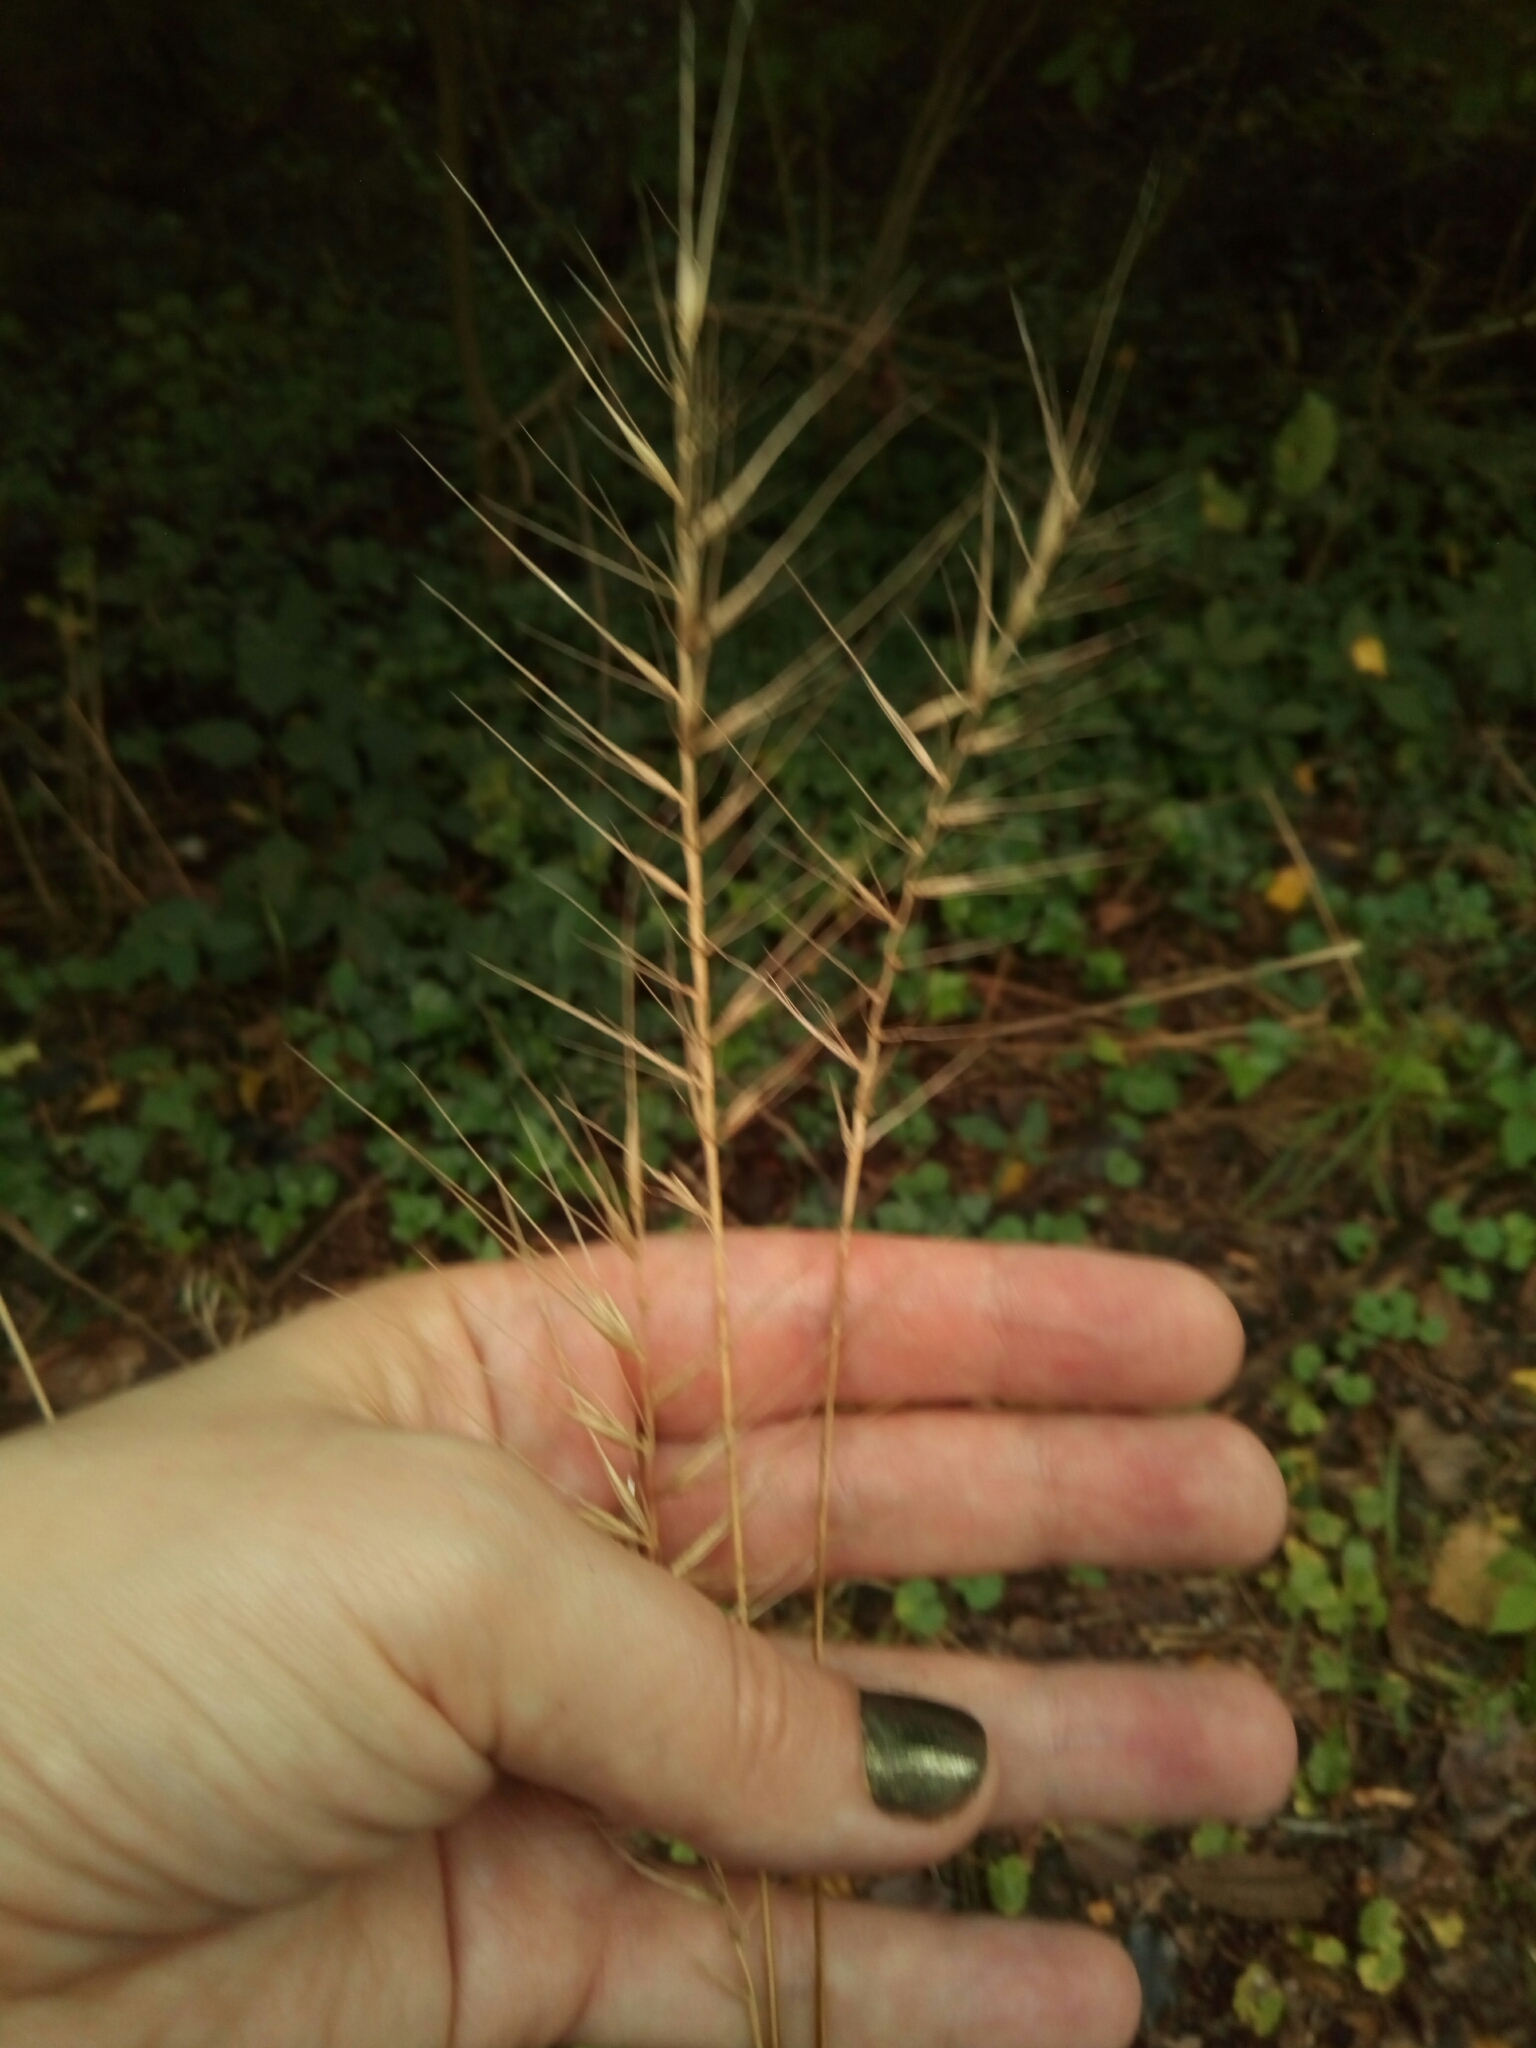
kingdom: Plantae
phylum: Tracheophyta
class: Liliopsida
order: Poales
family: Poaceae
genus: Elymus
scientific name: Elymus hystrix
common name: Bottlebrush grass
